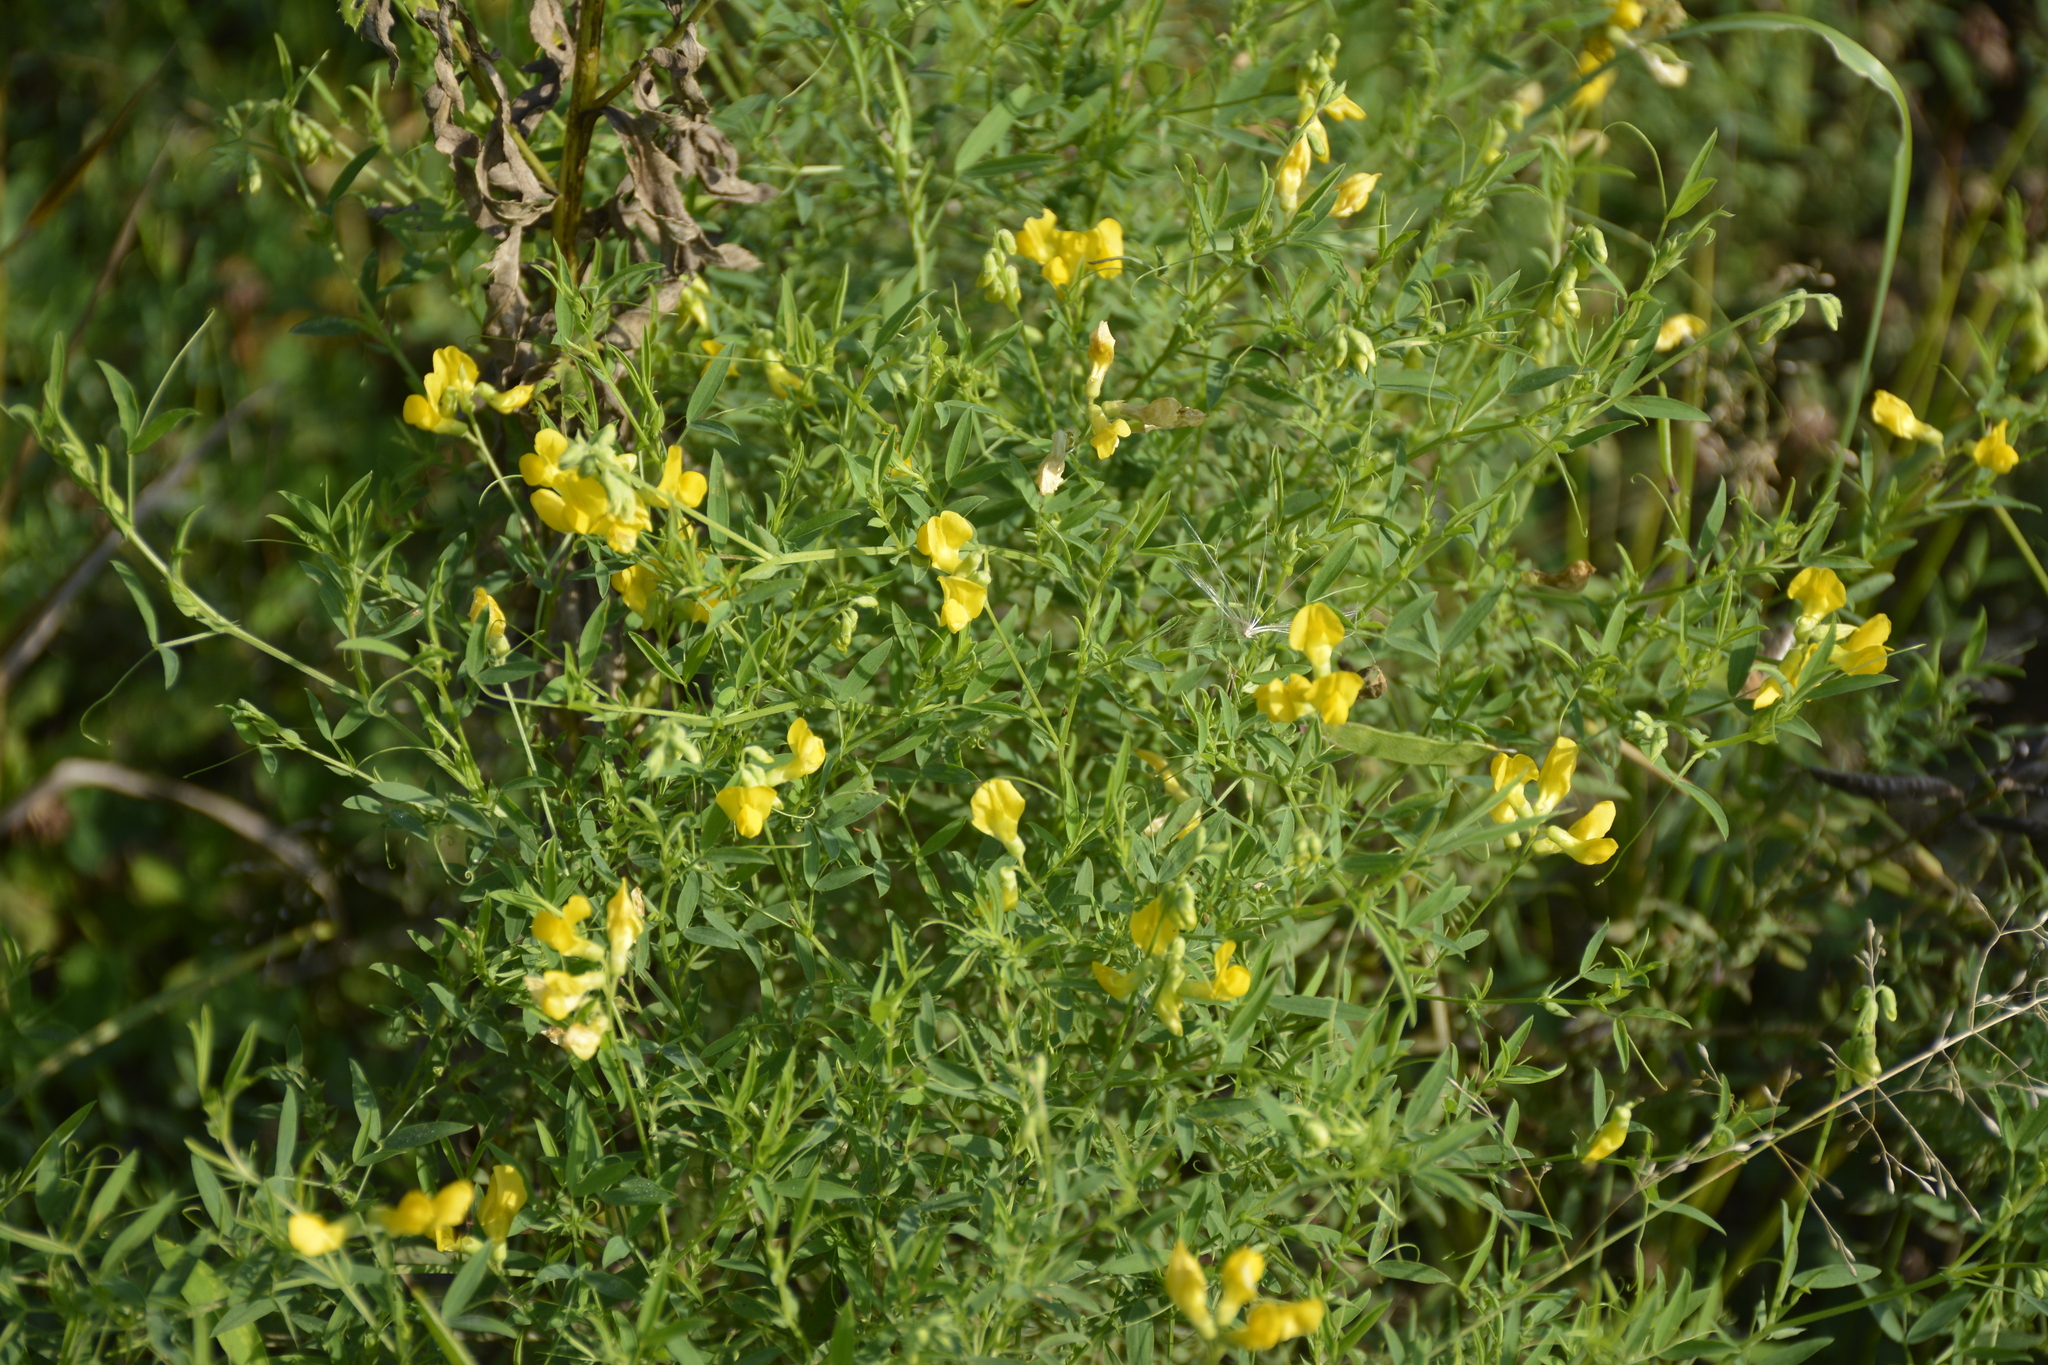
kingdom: Plantae
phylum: Tracheophyta
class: Magnoliopsida
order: Fabales
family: Fabaceae
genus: Lathyrus
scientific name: Lathyrus pratensis
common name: Meadow vetchling
